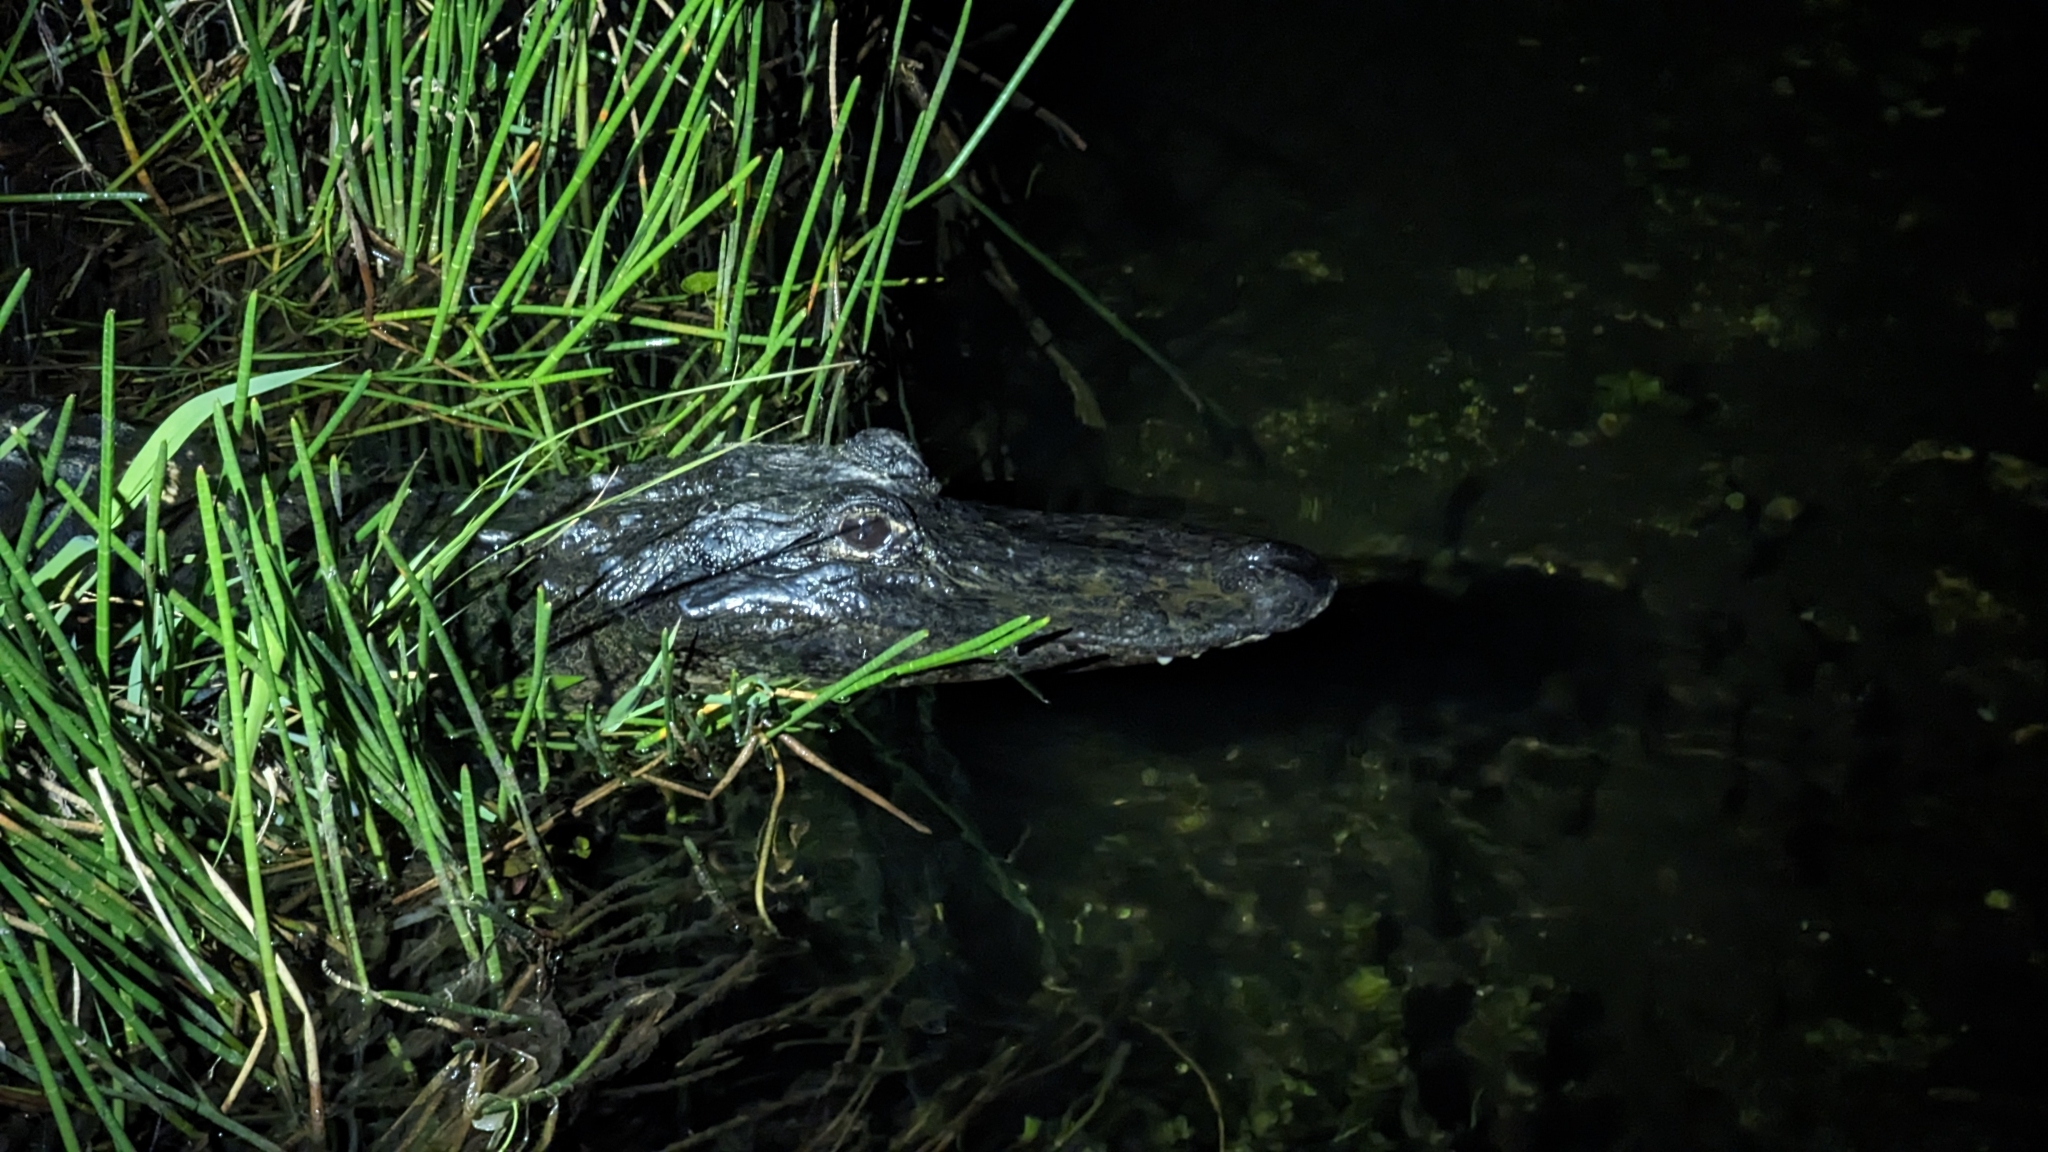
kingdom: Animalia
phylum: Chordata
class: Crocodylia
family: Alligatoridae
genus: Alligator
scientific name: Alligator mississippiensis
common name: American alligator
